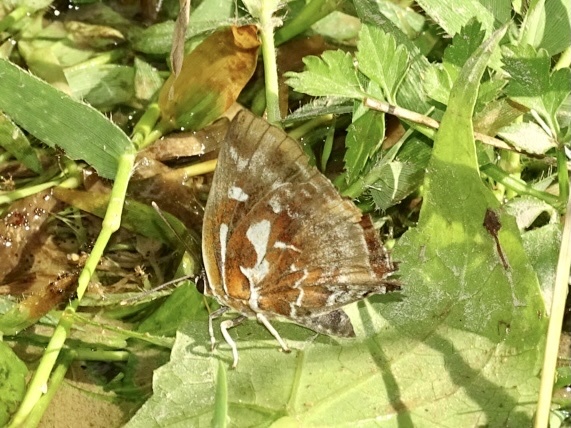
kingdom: Animalia
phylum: Arthropoda
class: Insecta
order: Lepidoptera
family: Lycaenidae
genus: Iraota
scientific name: Iraota timoleon
